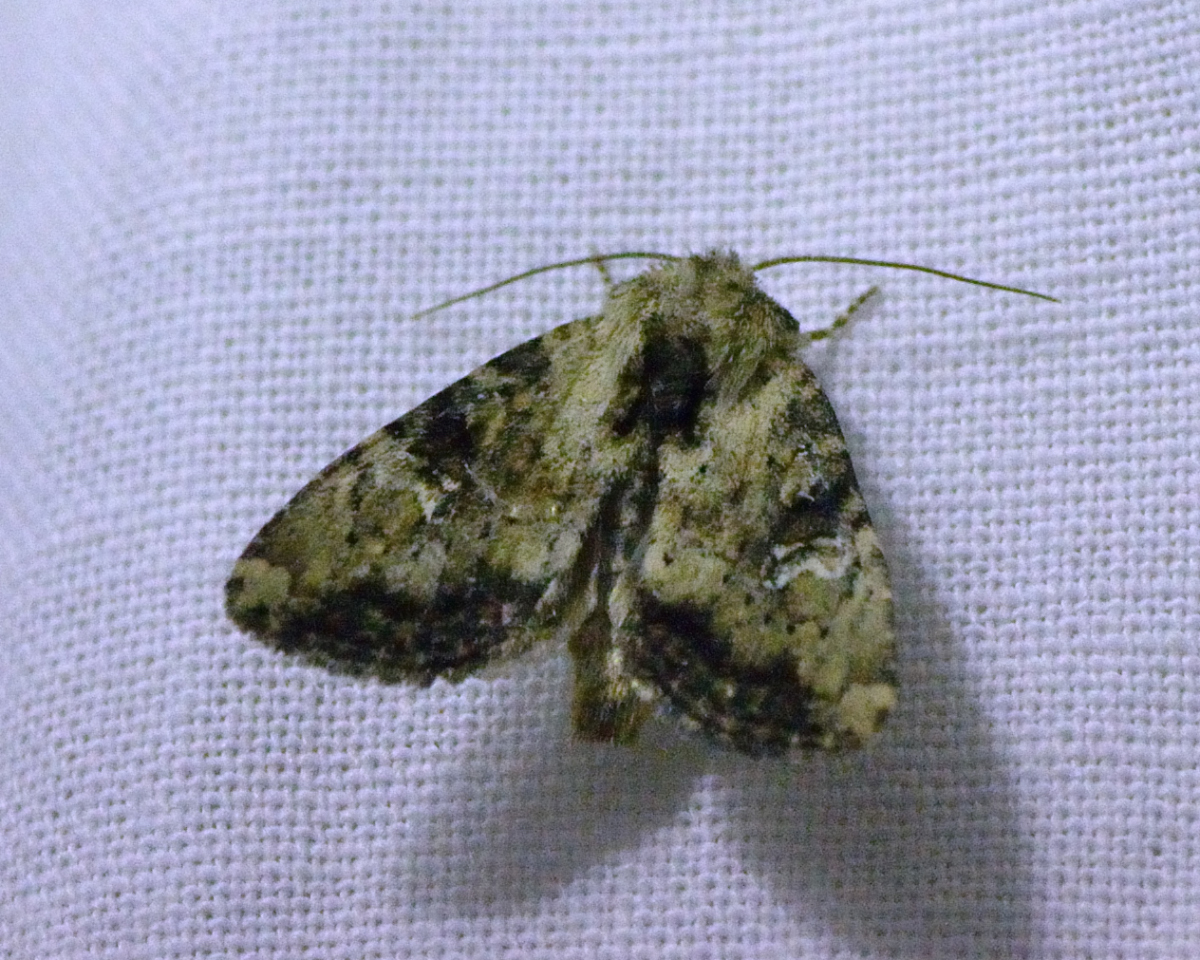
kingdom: Animalia
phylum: Arthropoda
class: Insecta
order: Lepidoptera
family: Noctuidae
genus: Loscopia
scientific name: Loscopia scolopacina
